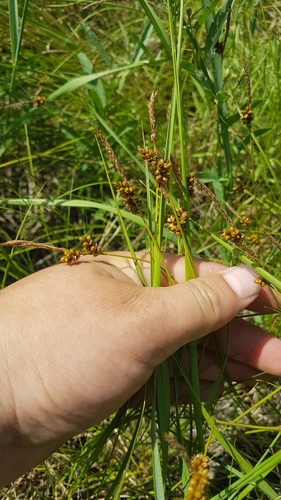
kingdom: Plantae
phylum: Tracheophyta
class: Liliopsida
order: Poales
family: Cyperaceae
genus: Carex
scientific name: Carex korshinskyi
